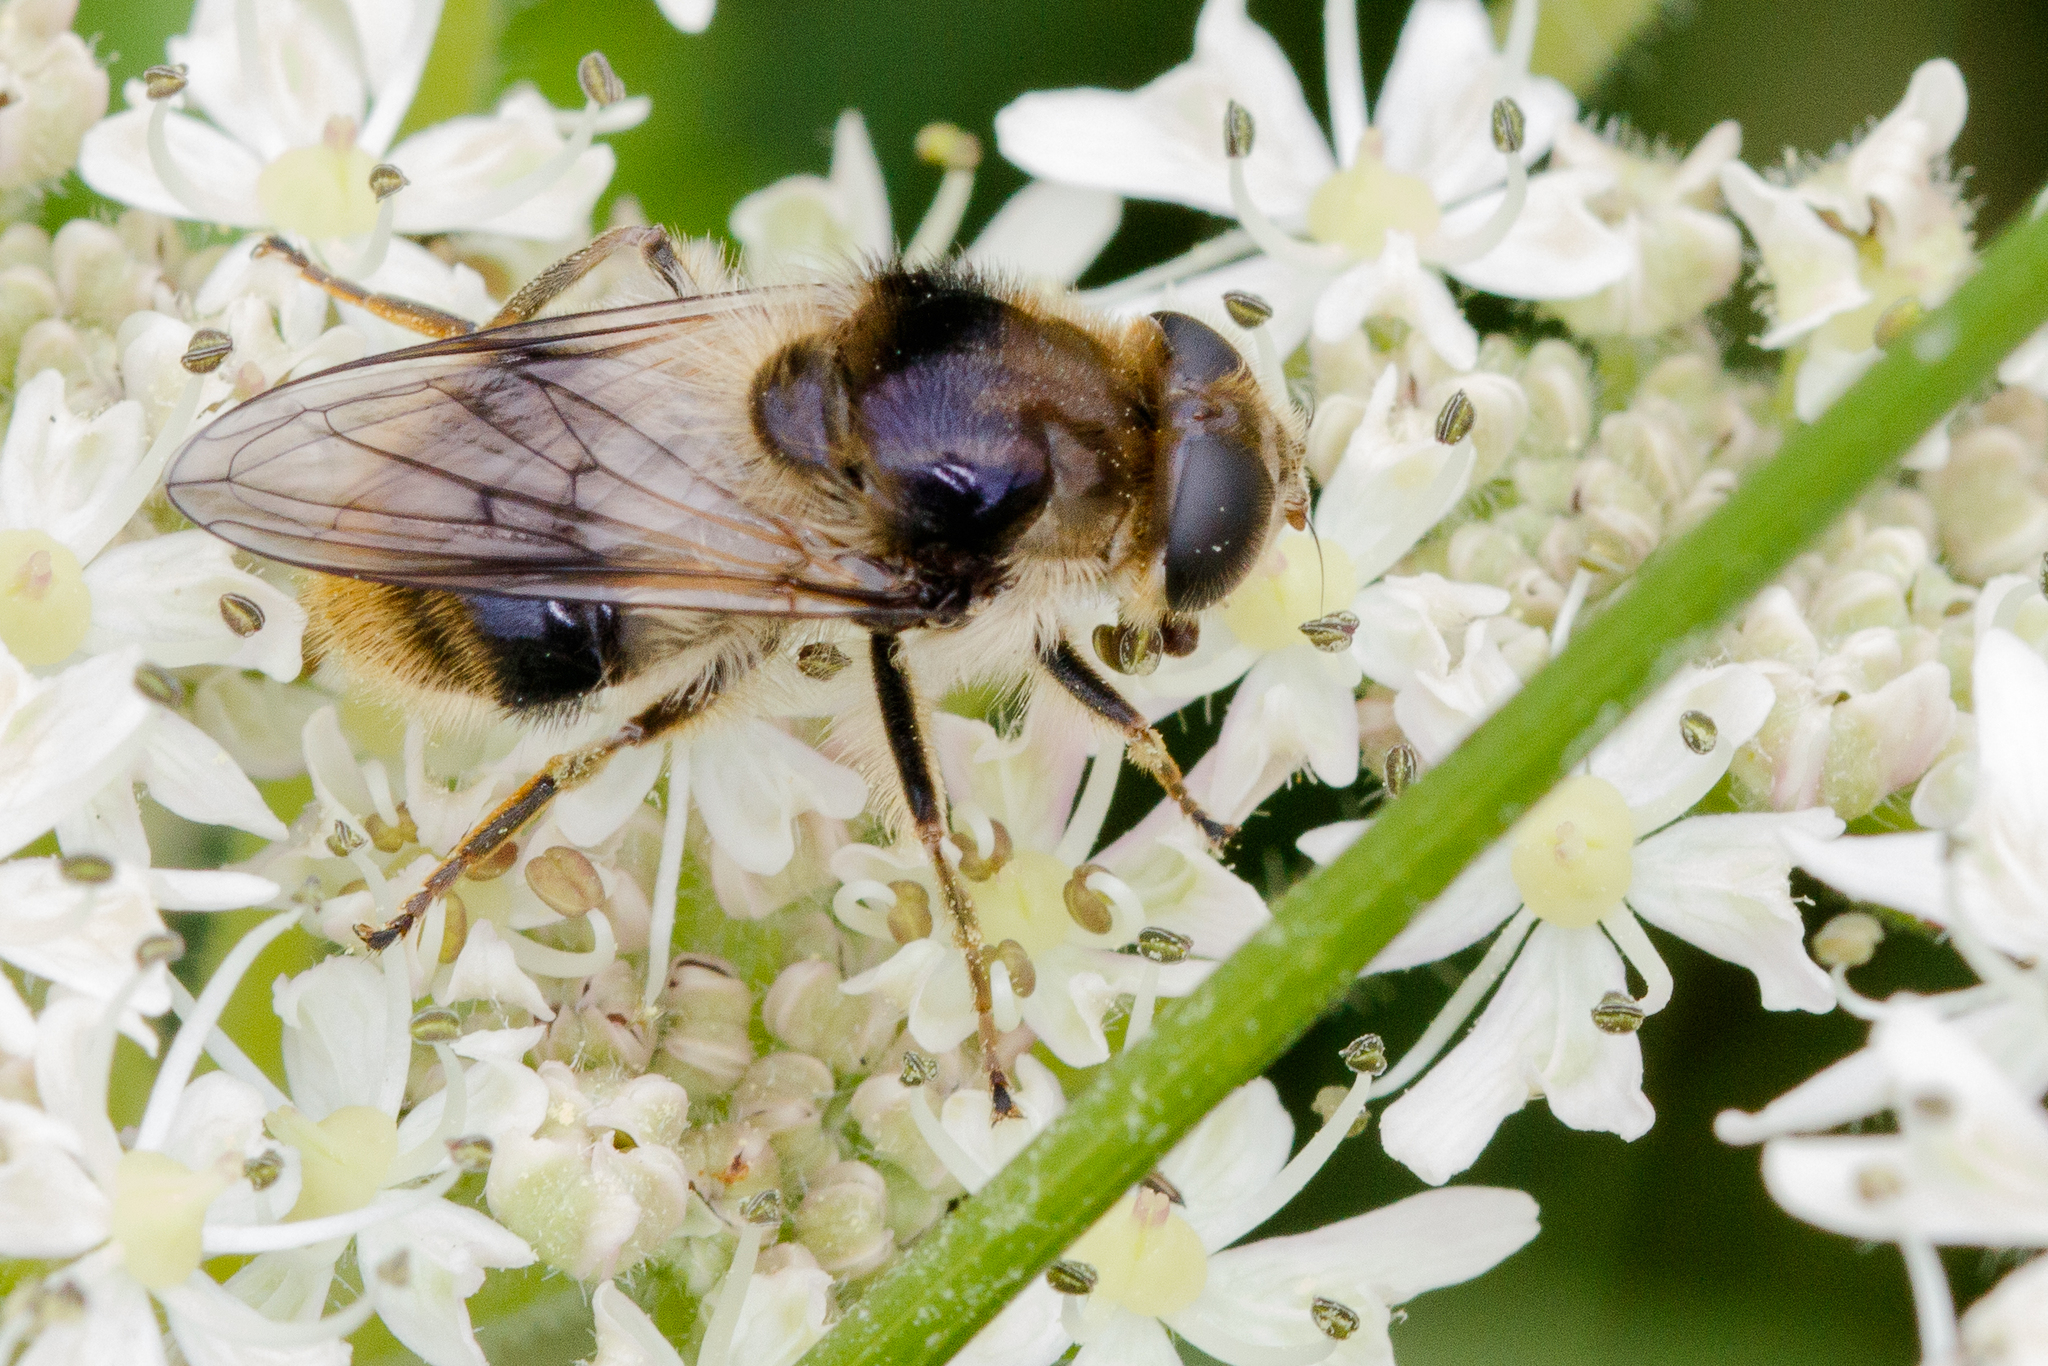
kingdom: Animalia
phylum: Arthropoda
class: Insecta
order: Diptera
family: Syrphidae
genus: Cheilosia
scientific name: Cheilosia illustrata
